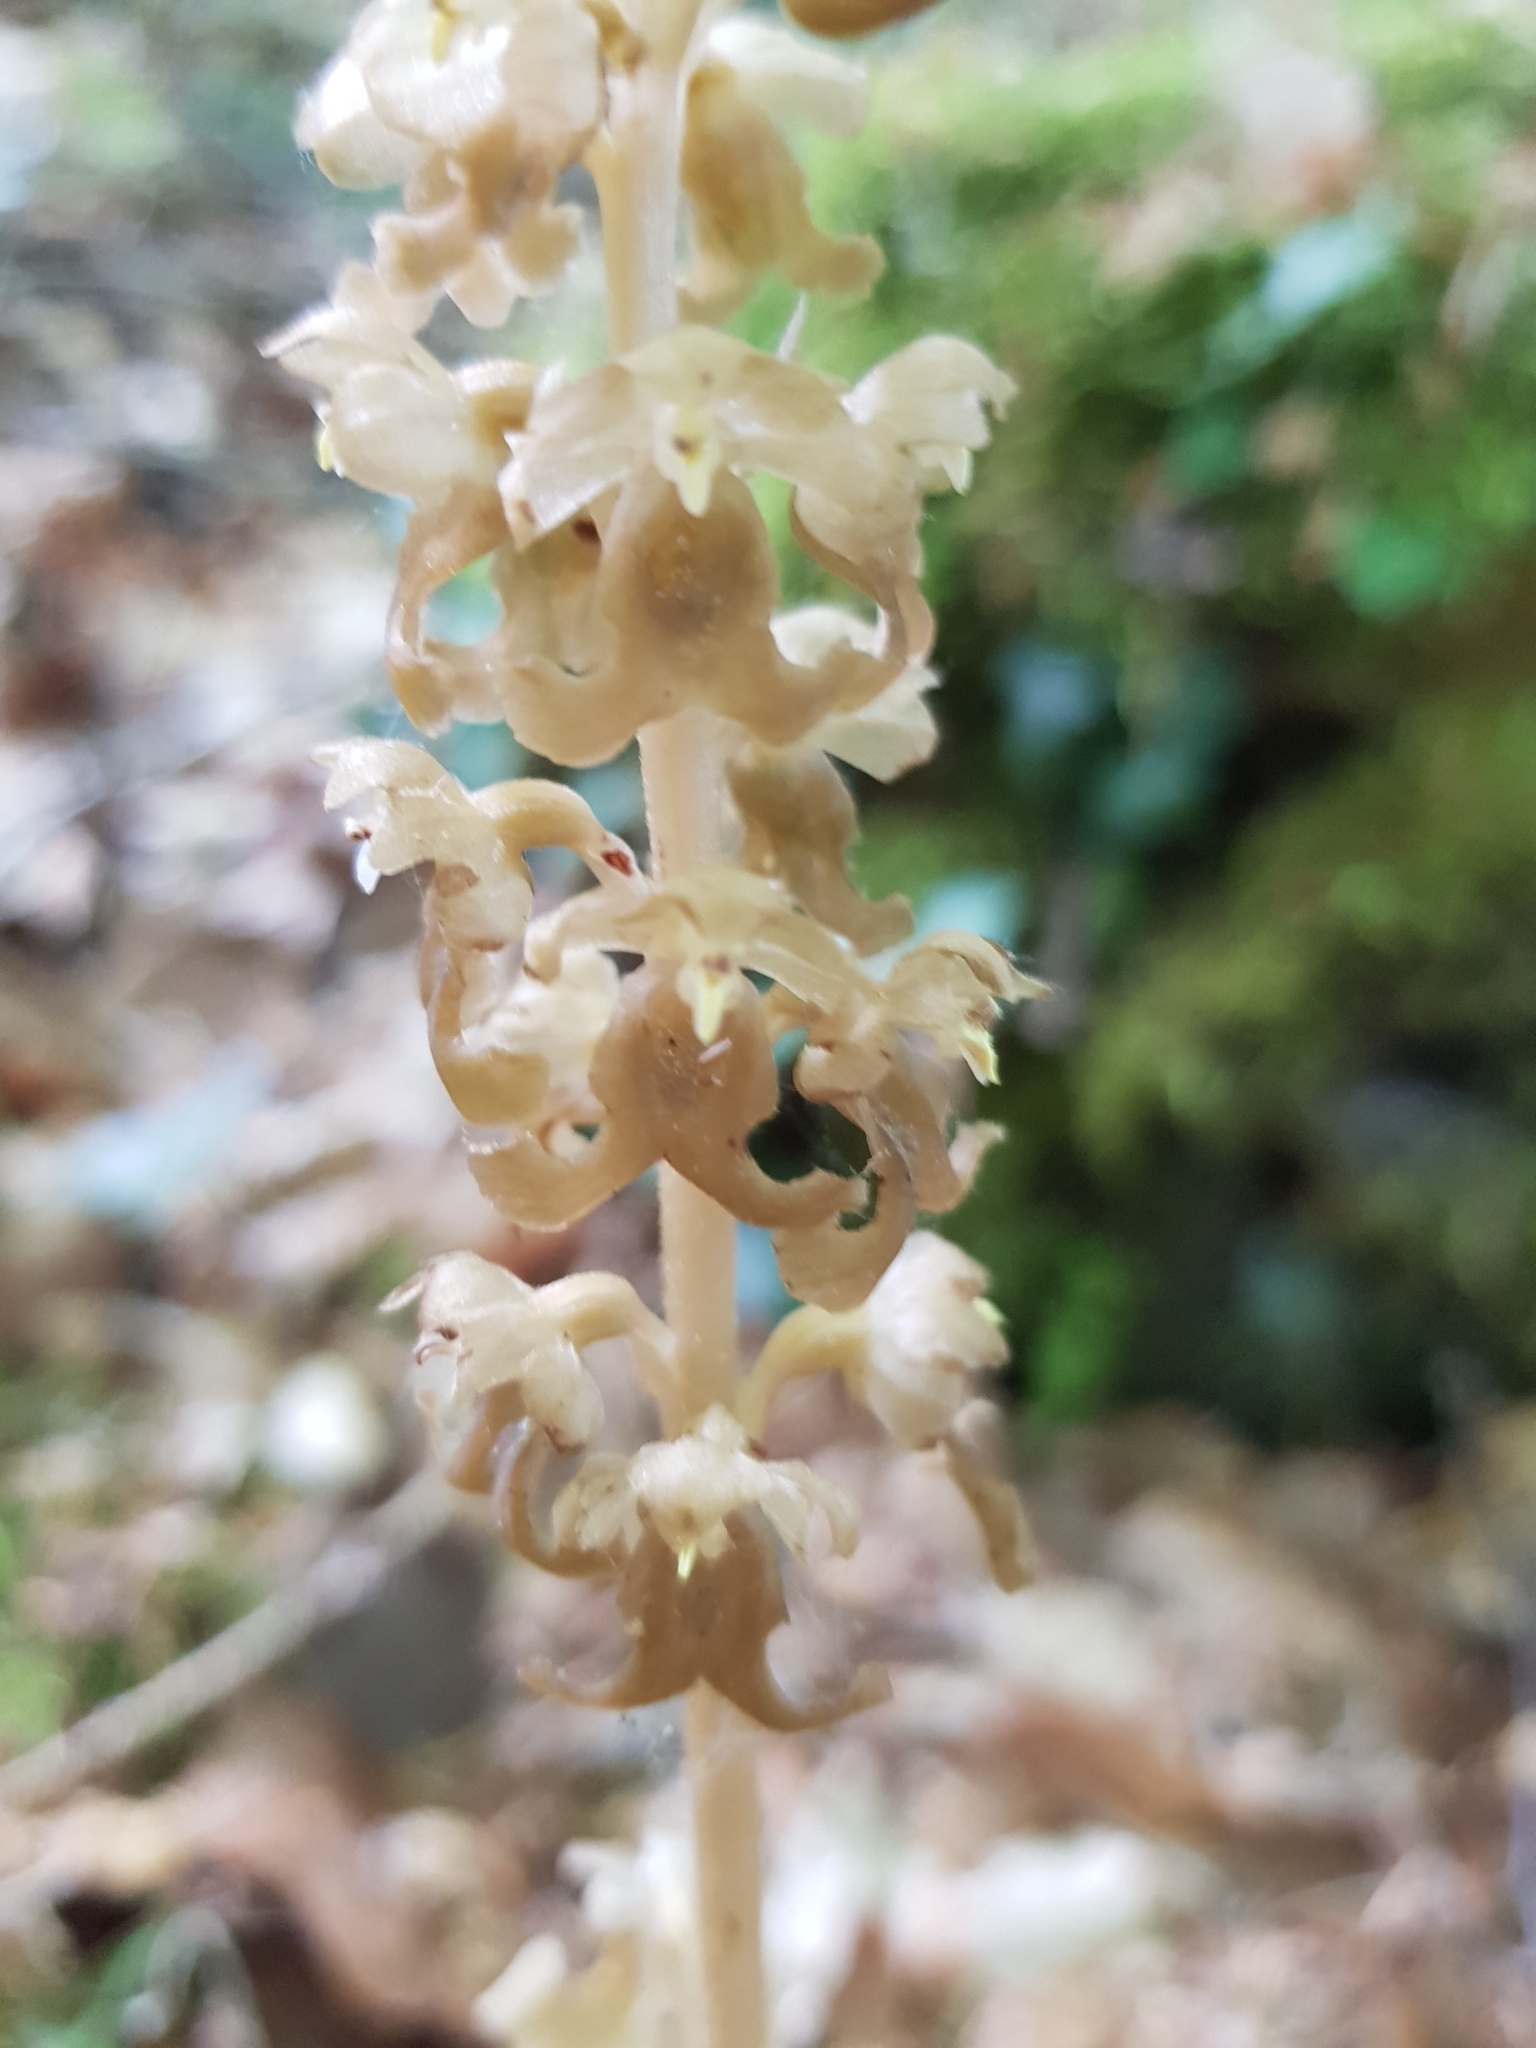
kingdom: Plantae
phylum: Tracheophyta
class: Liliopsida
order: Asparagales
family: Orchidaceae
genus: Neottia
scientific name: Neottia nidus-avis
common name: Bird's-nest orchid
